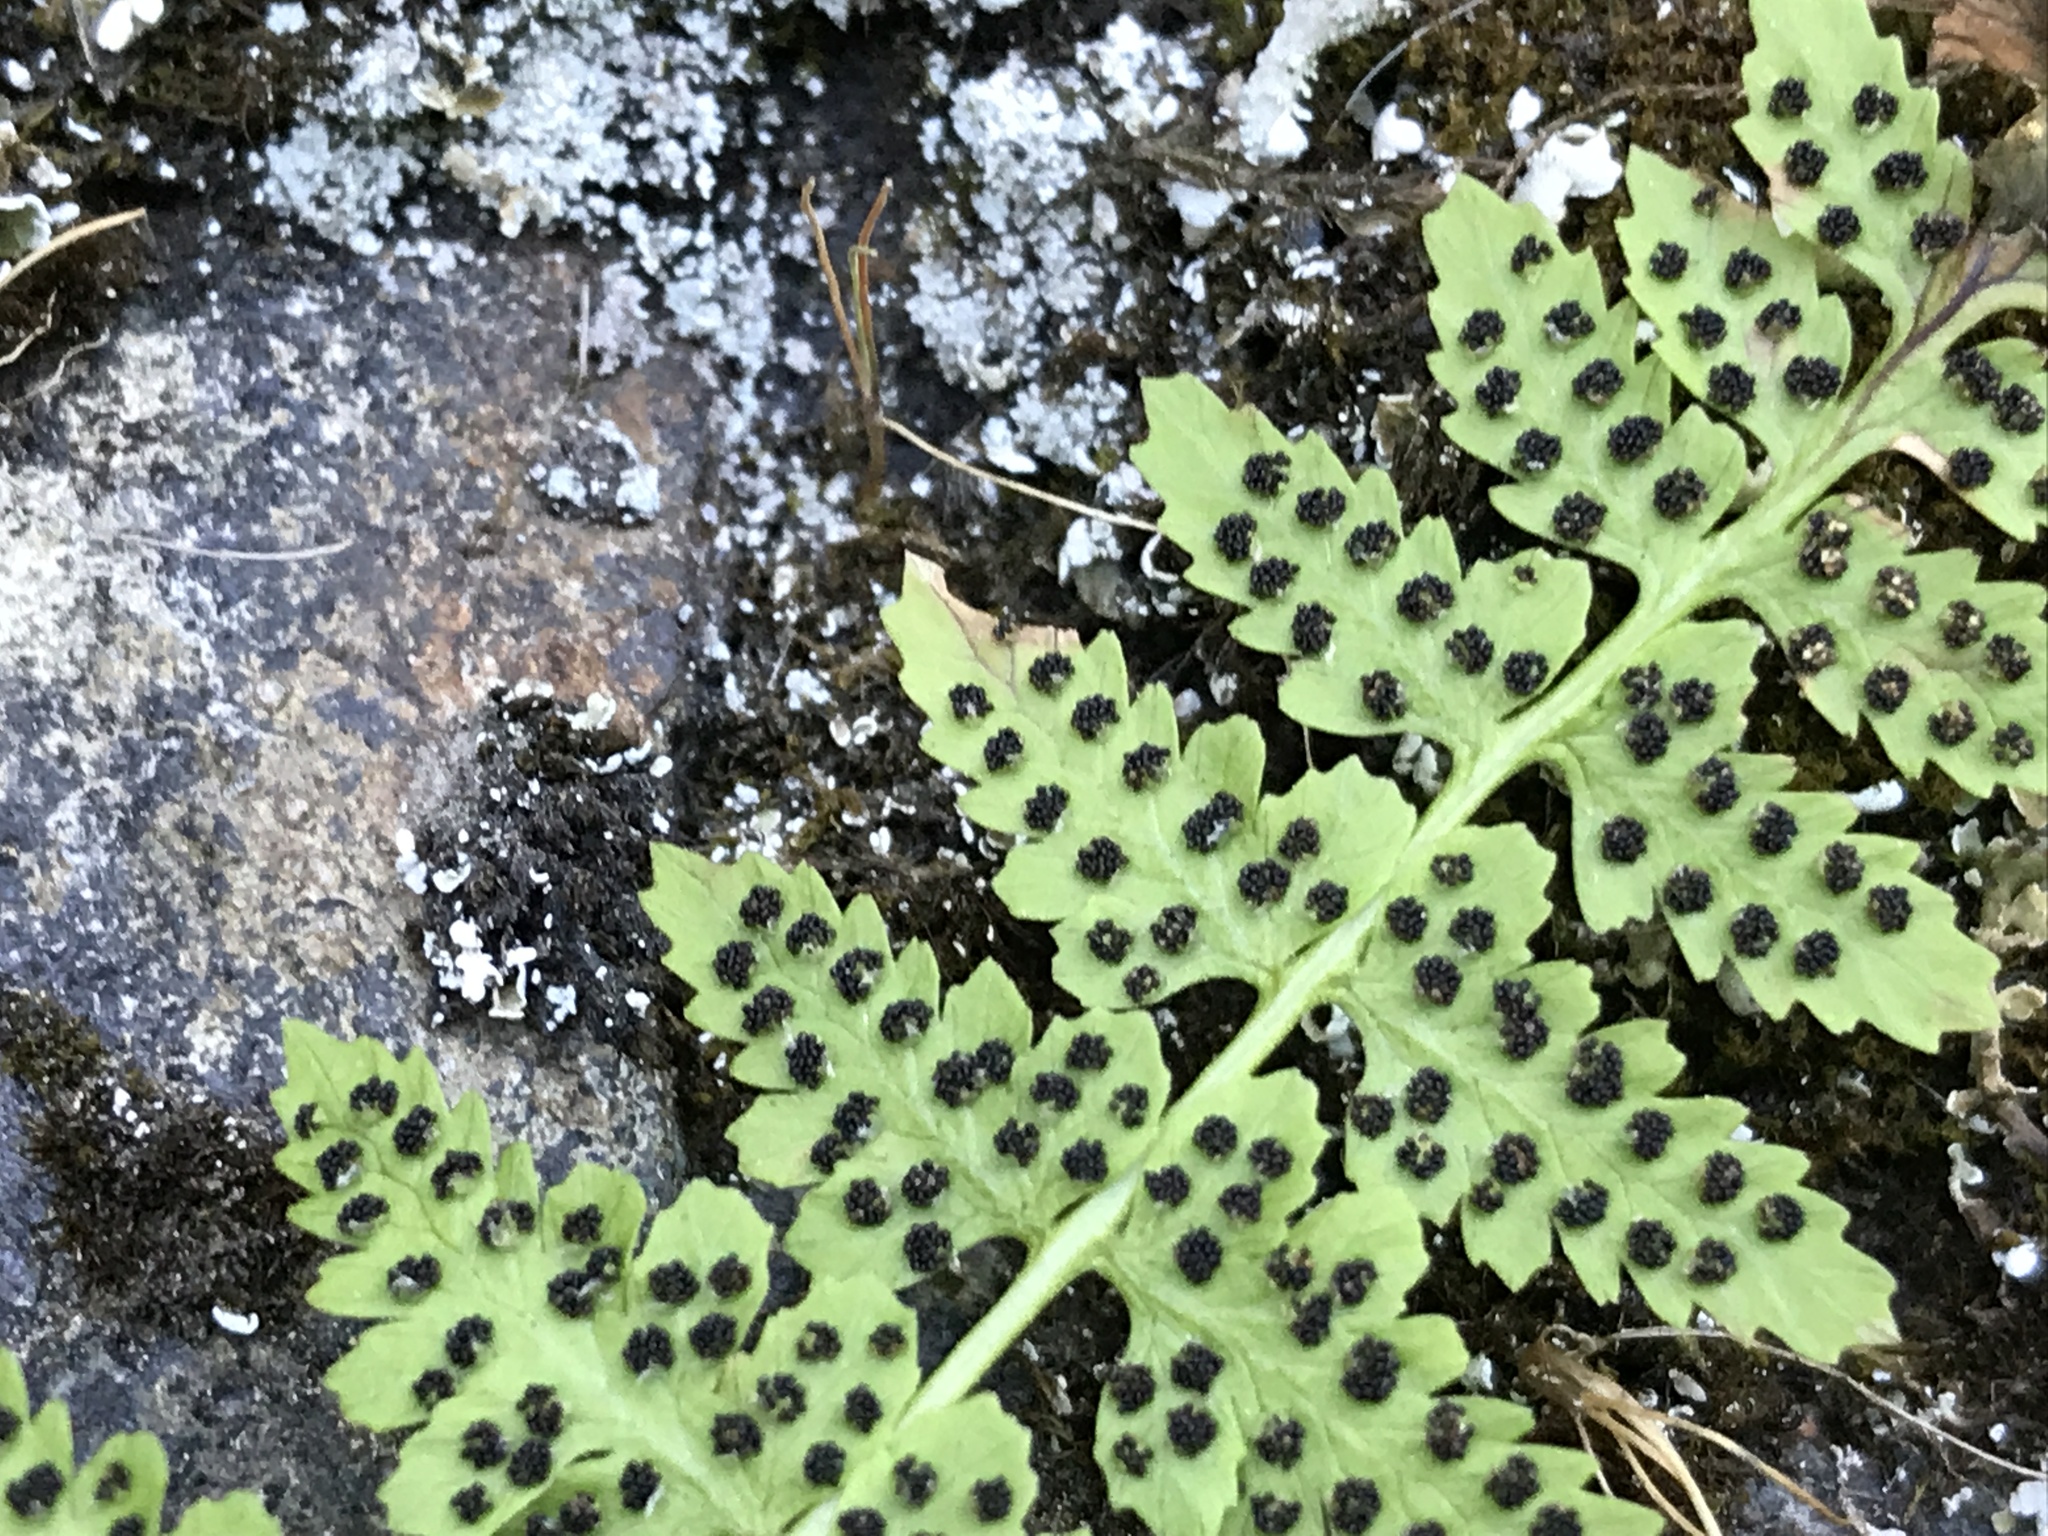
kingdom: Plantae
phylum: Tracheophyta
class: Polypodiopsida
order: Polypodiales
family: Cystopteridaceae
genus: Cystopteris
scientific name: Cystopteris fragilis
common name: Brittle bladder fern
